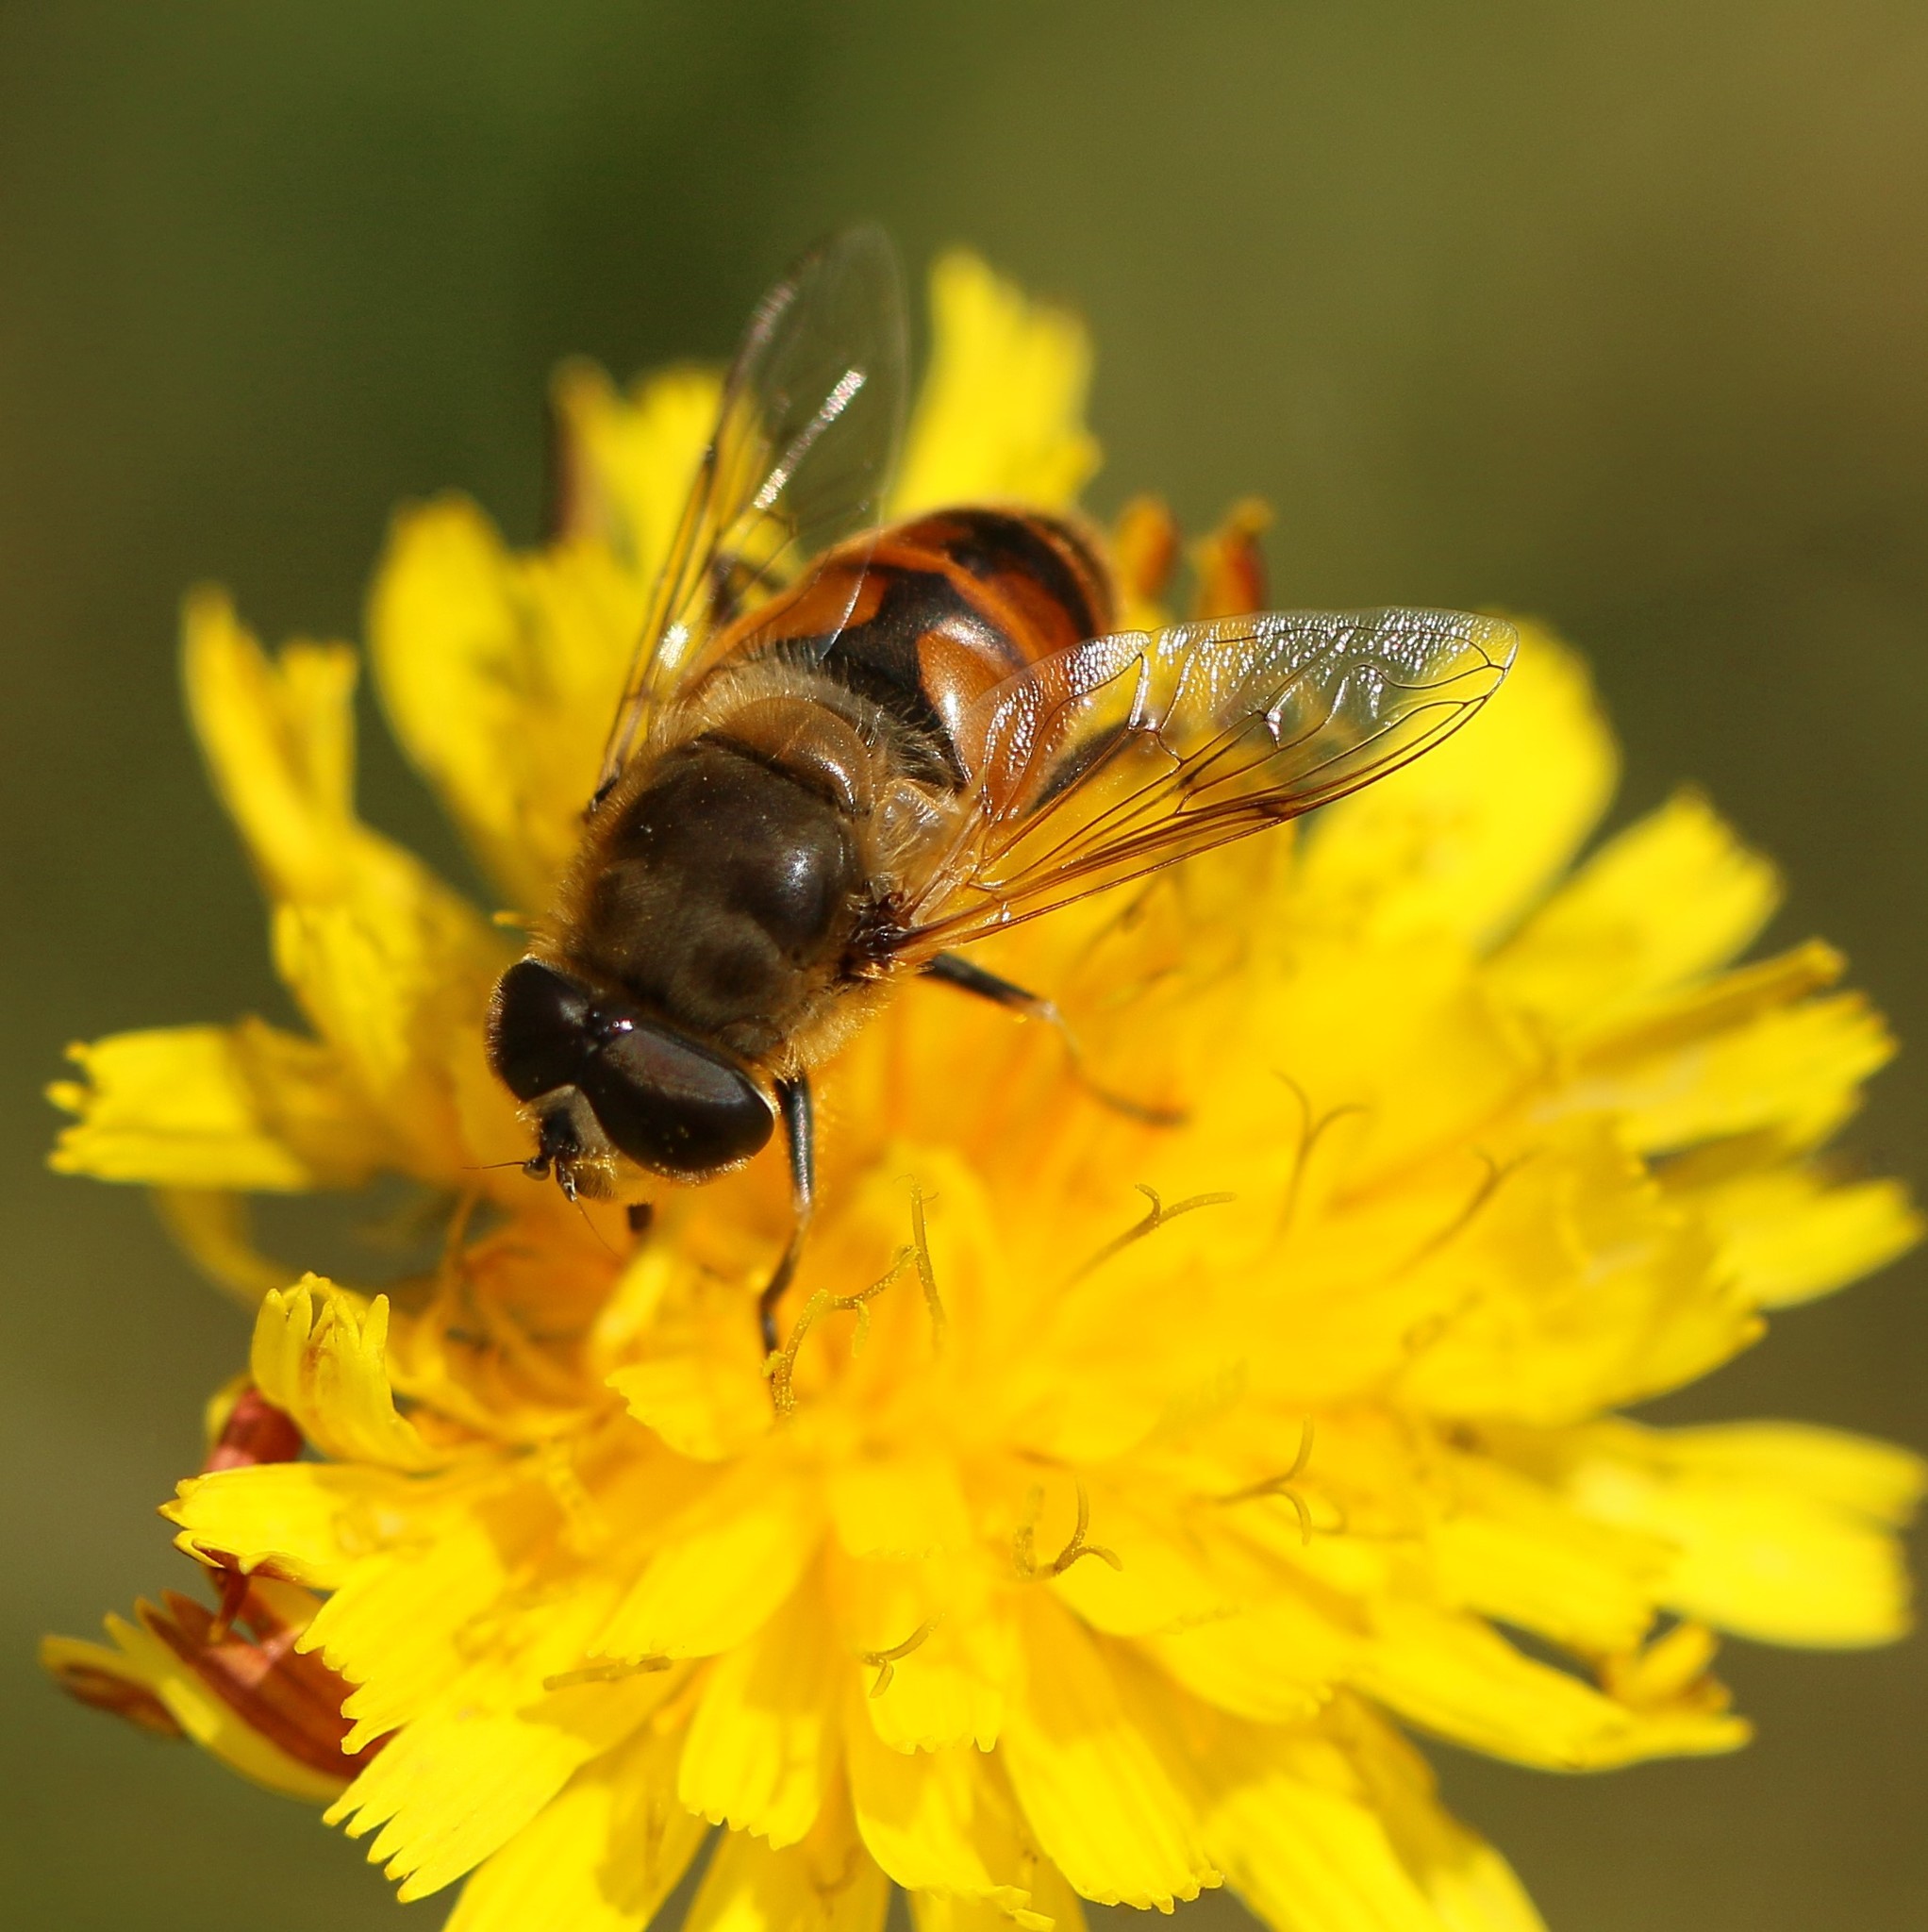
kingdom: Animalia
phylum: Arthropoda
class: Insecta
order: Diptera
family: Syrphidae
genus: Eristalis
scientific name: Eristalis tenax
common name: Drone fly
